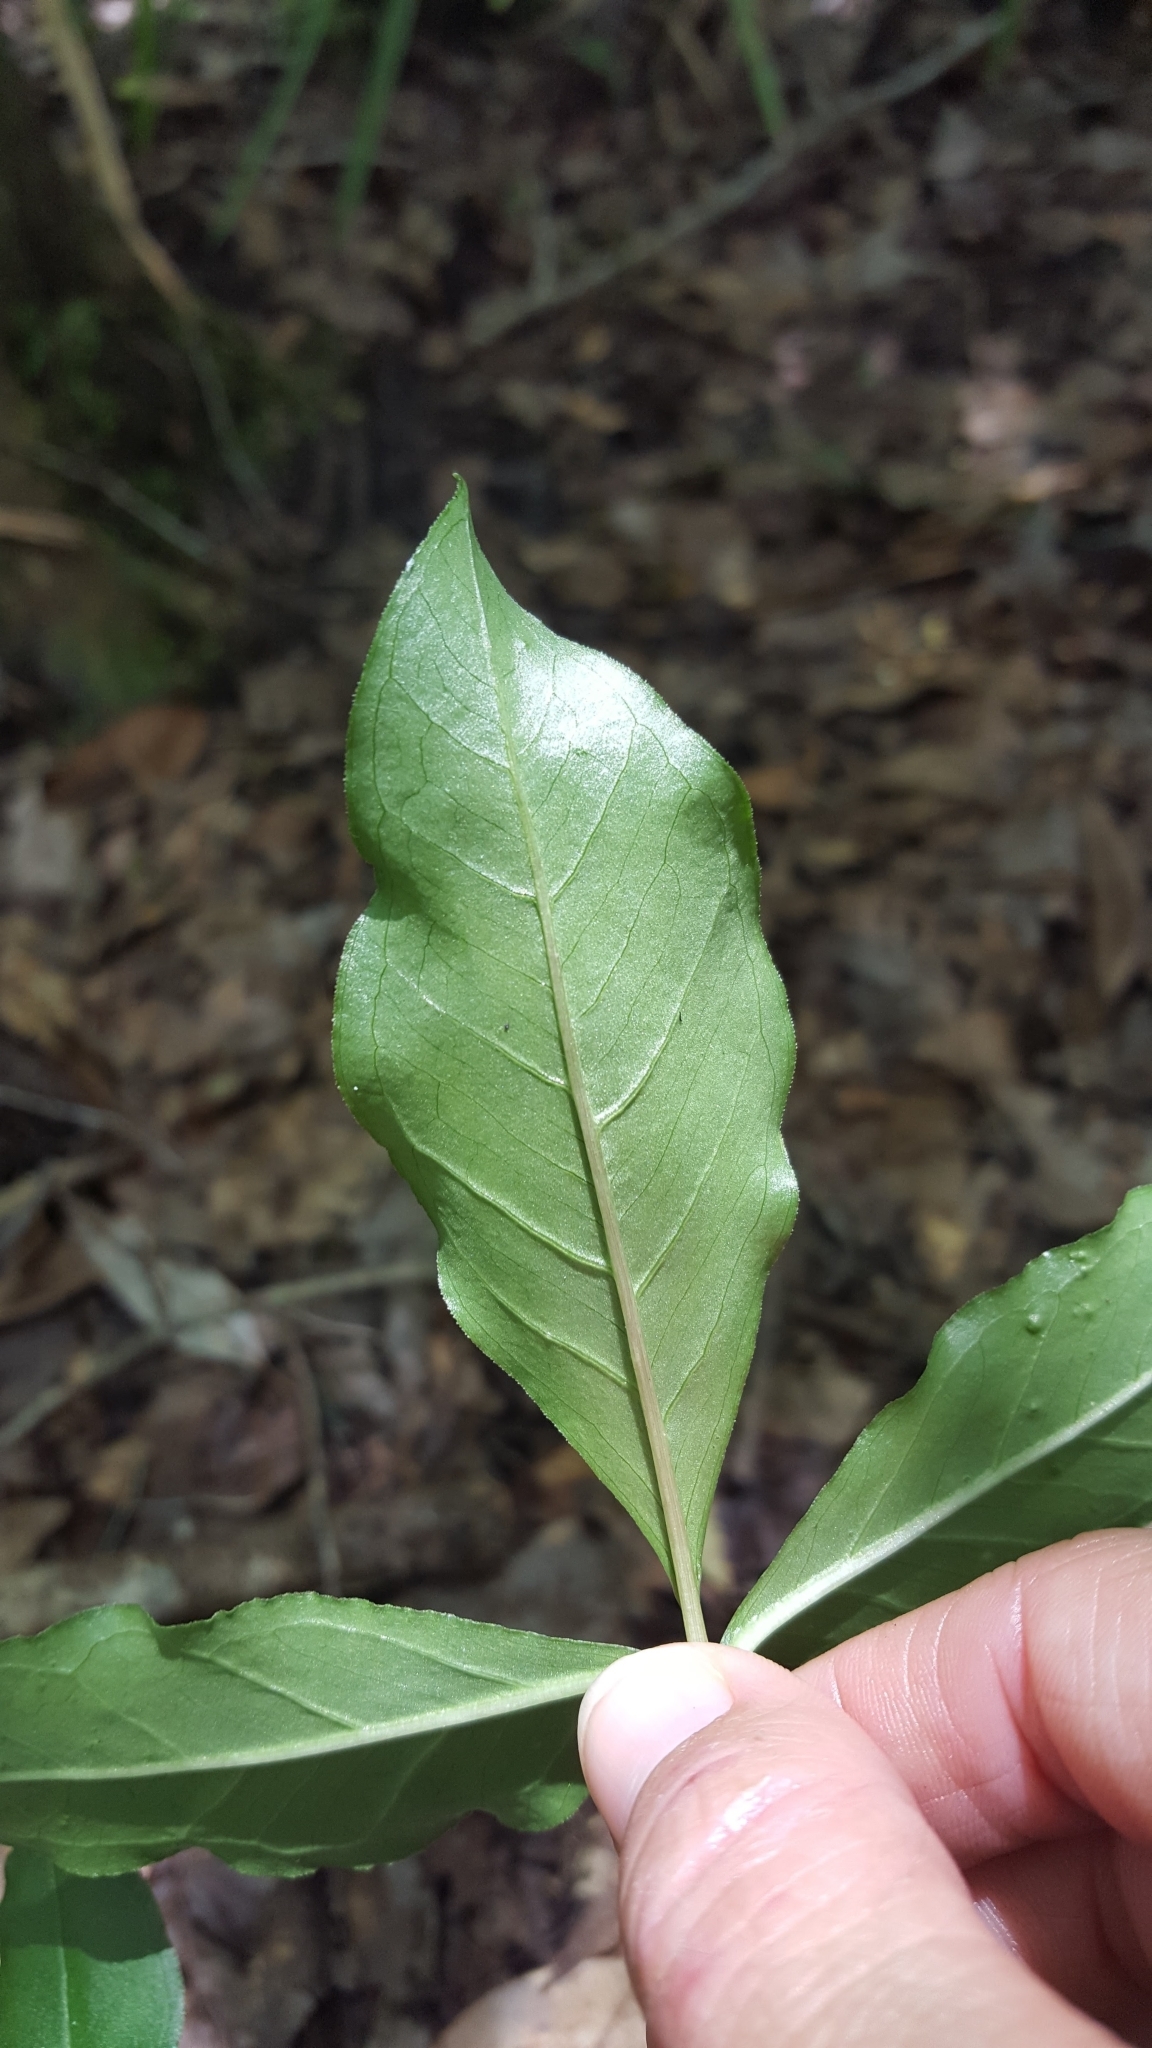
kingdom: Plantae
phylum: Tracheophyta
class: Liliopsida
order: Alismatales
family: Araceae
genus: Arisaema
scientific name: Arisaema acuminatum
